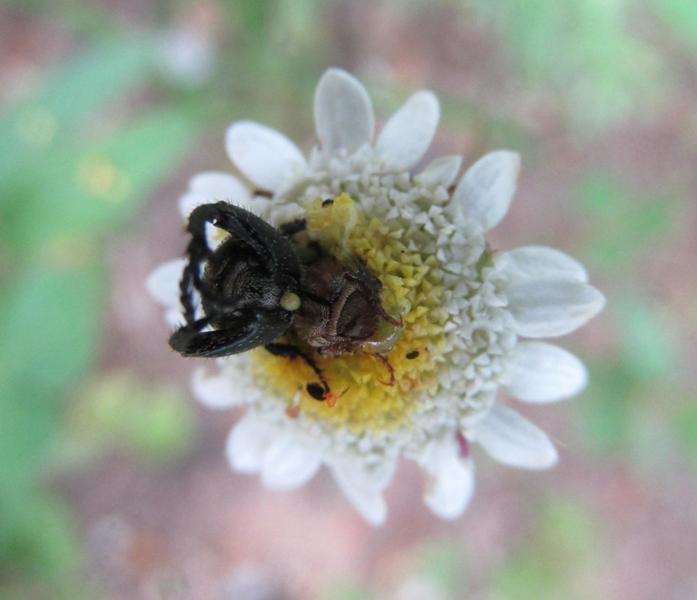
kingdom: Plantae
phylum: Tracheophyta
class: Magnoliopsida
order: Asterales
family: Asteraceae
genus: Cotula
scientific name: Cotula turbinata
